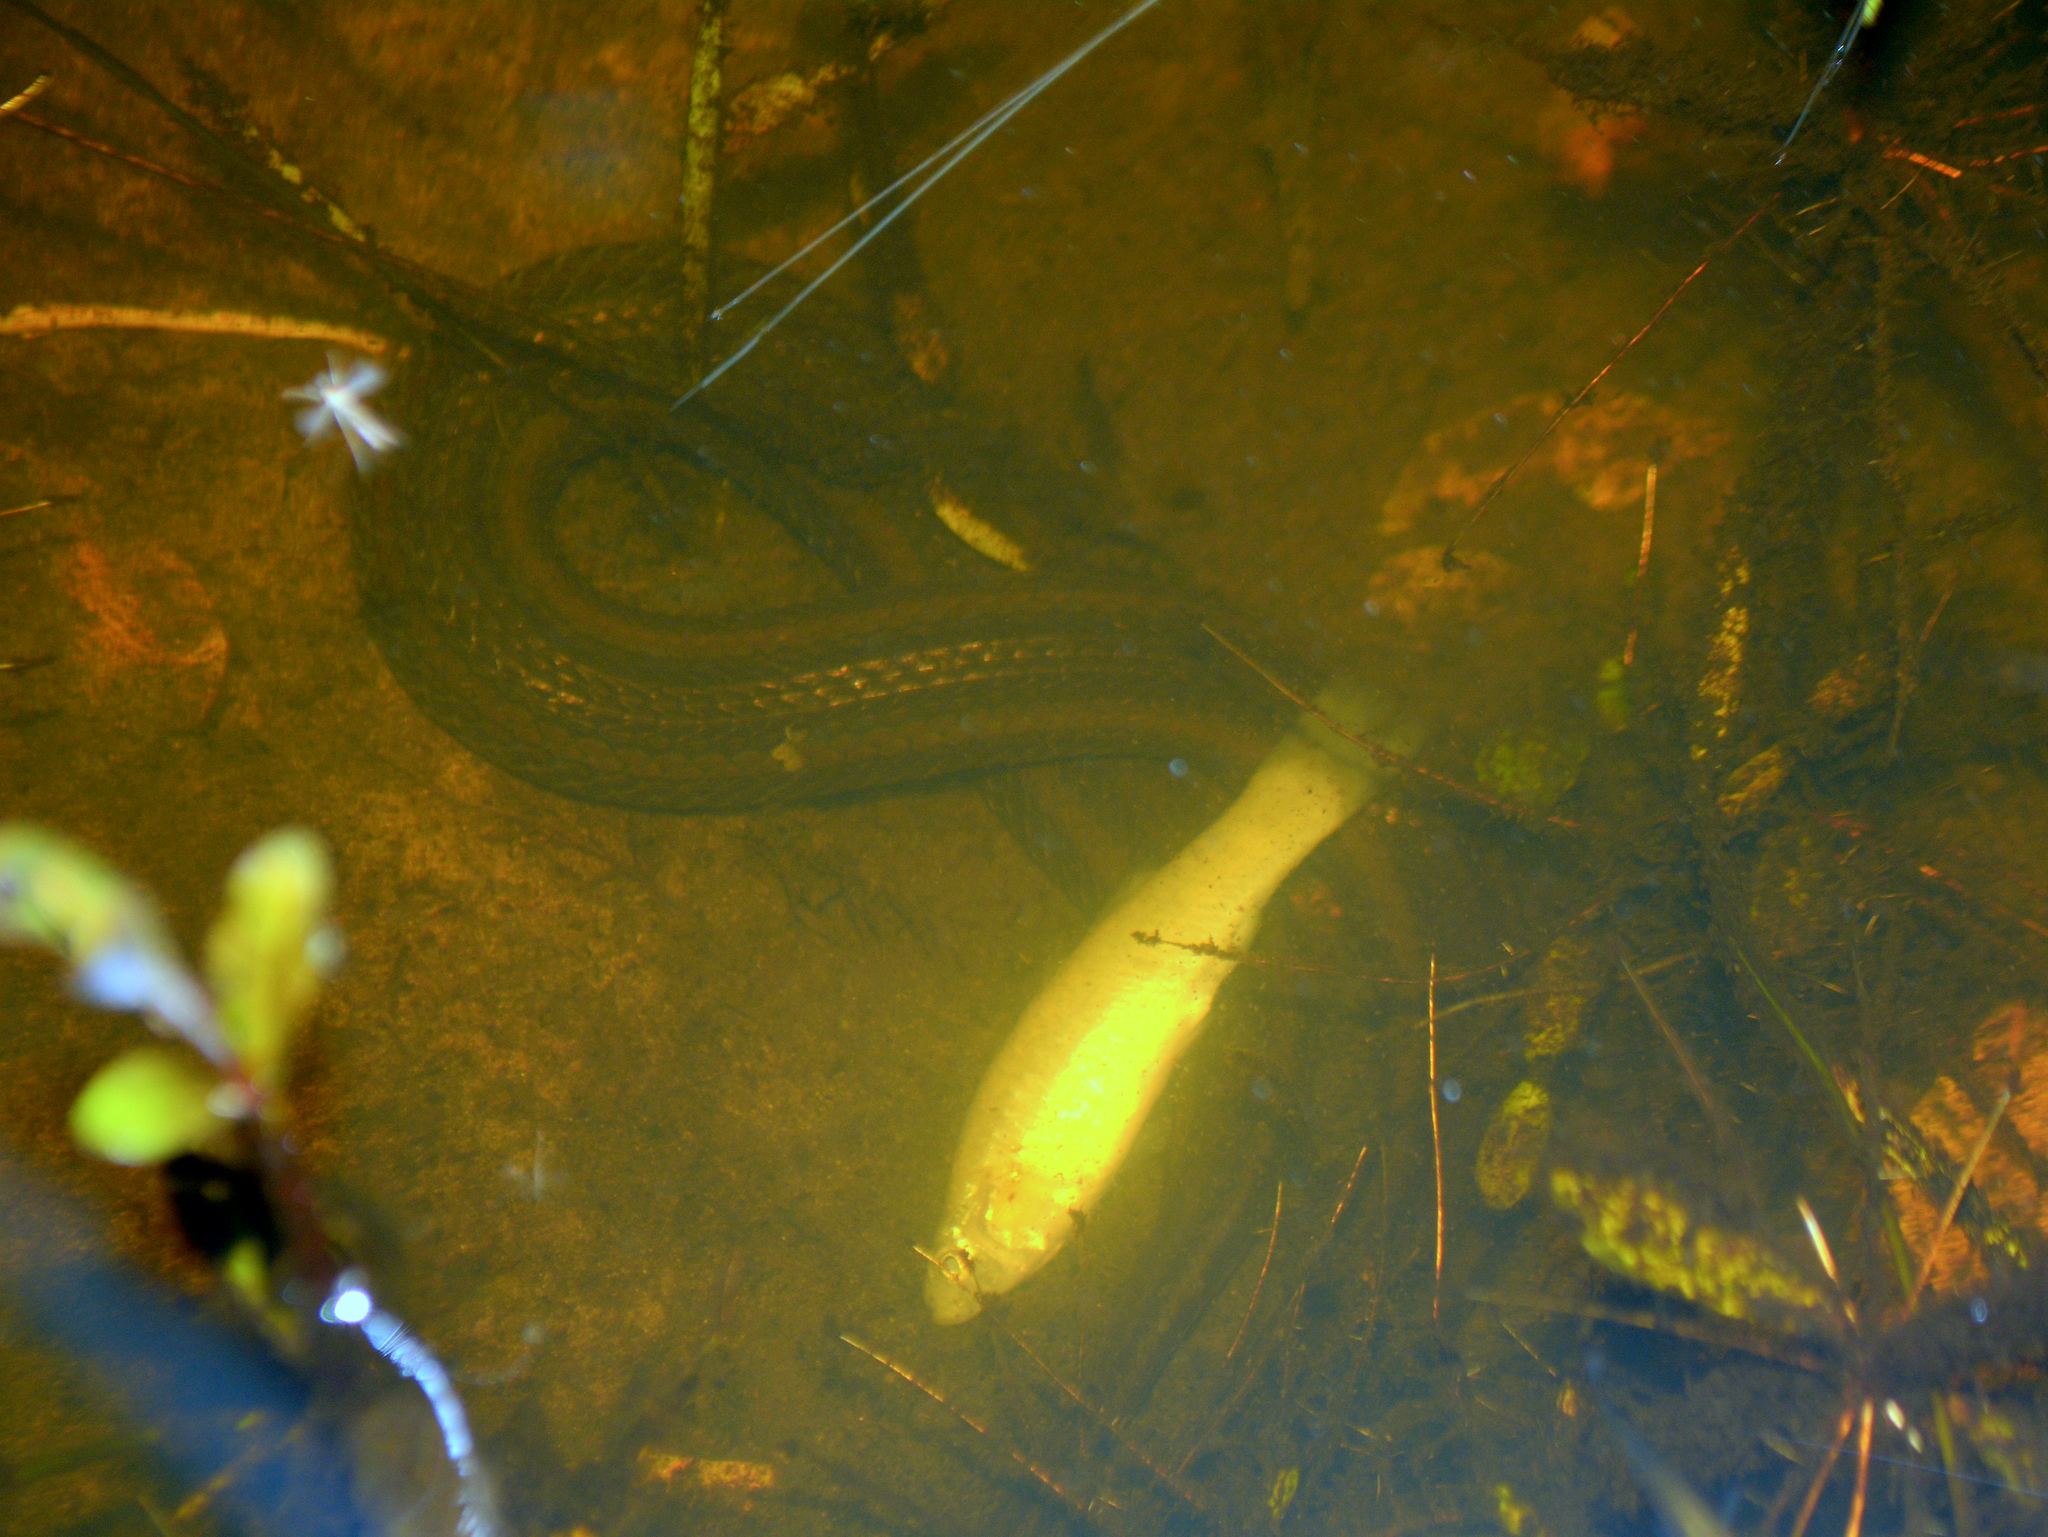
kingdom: Animalia
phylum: Chordata
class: Squamata
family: Colubridae
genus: Helicops
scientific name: Helicops infrataeniatus
